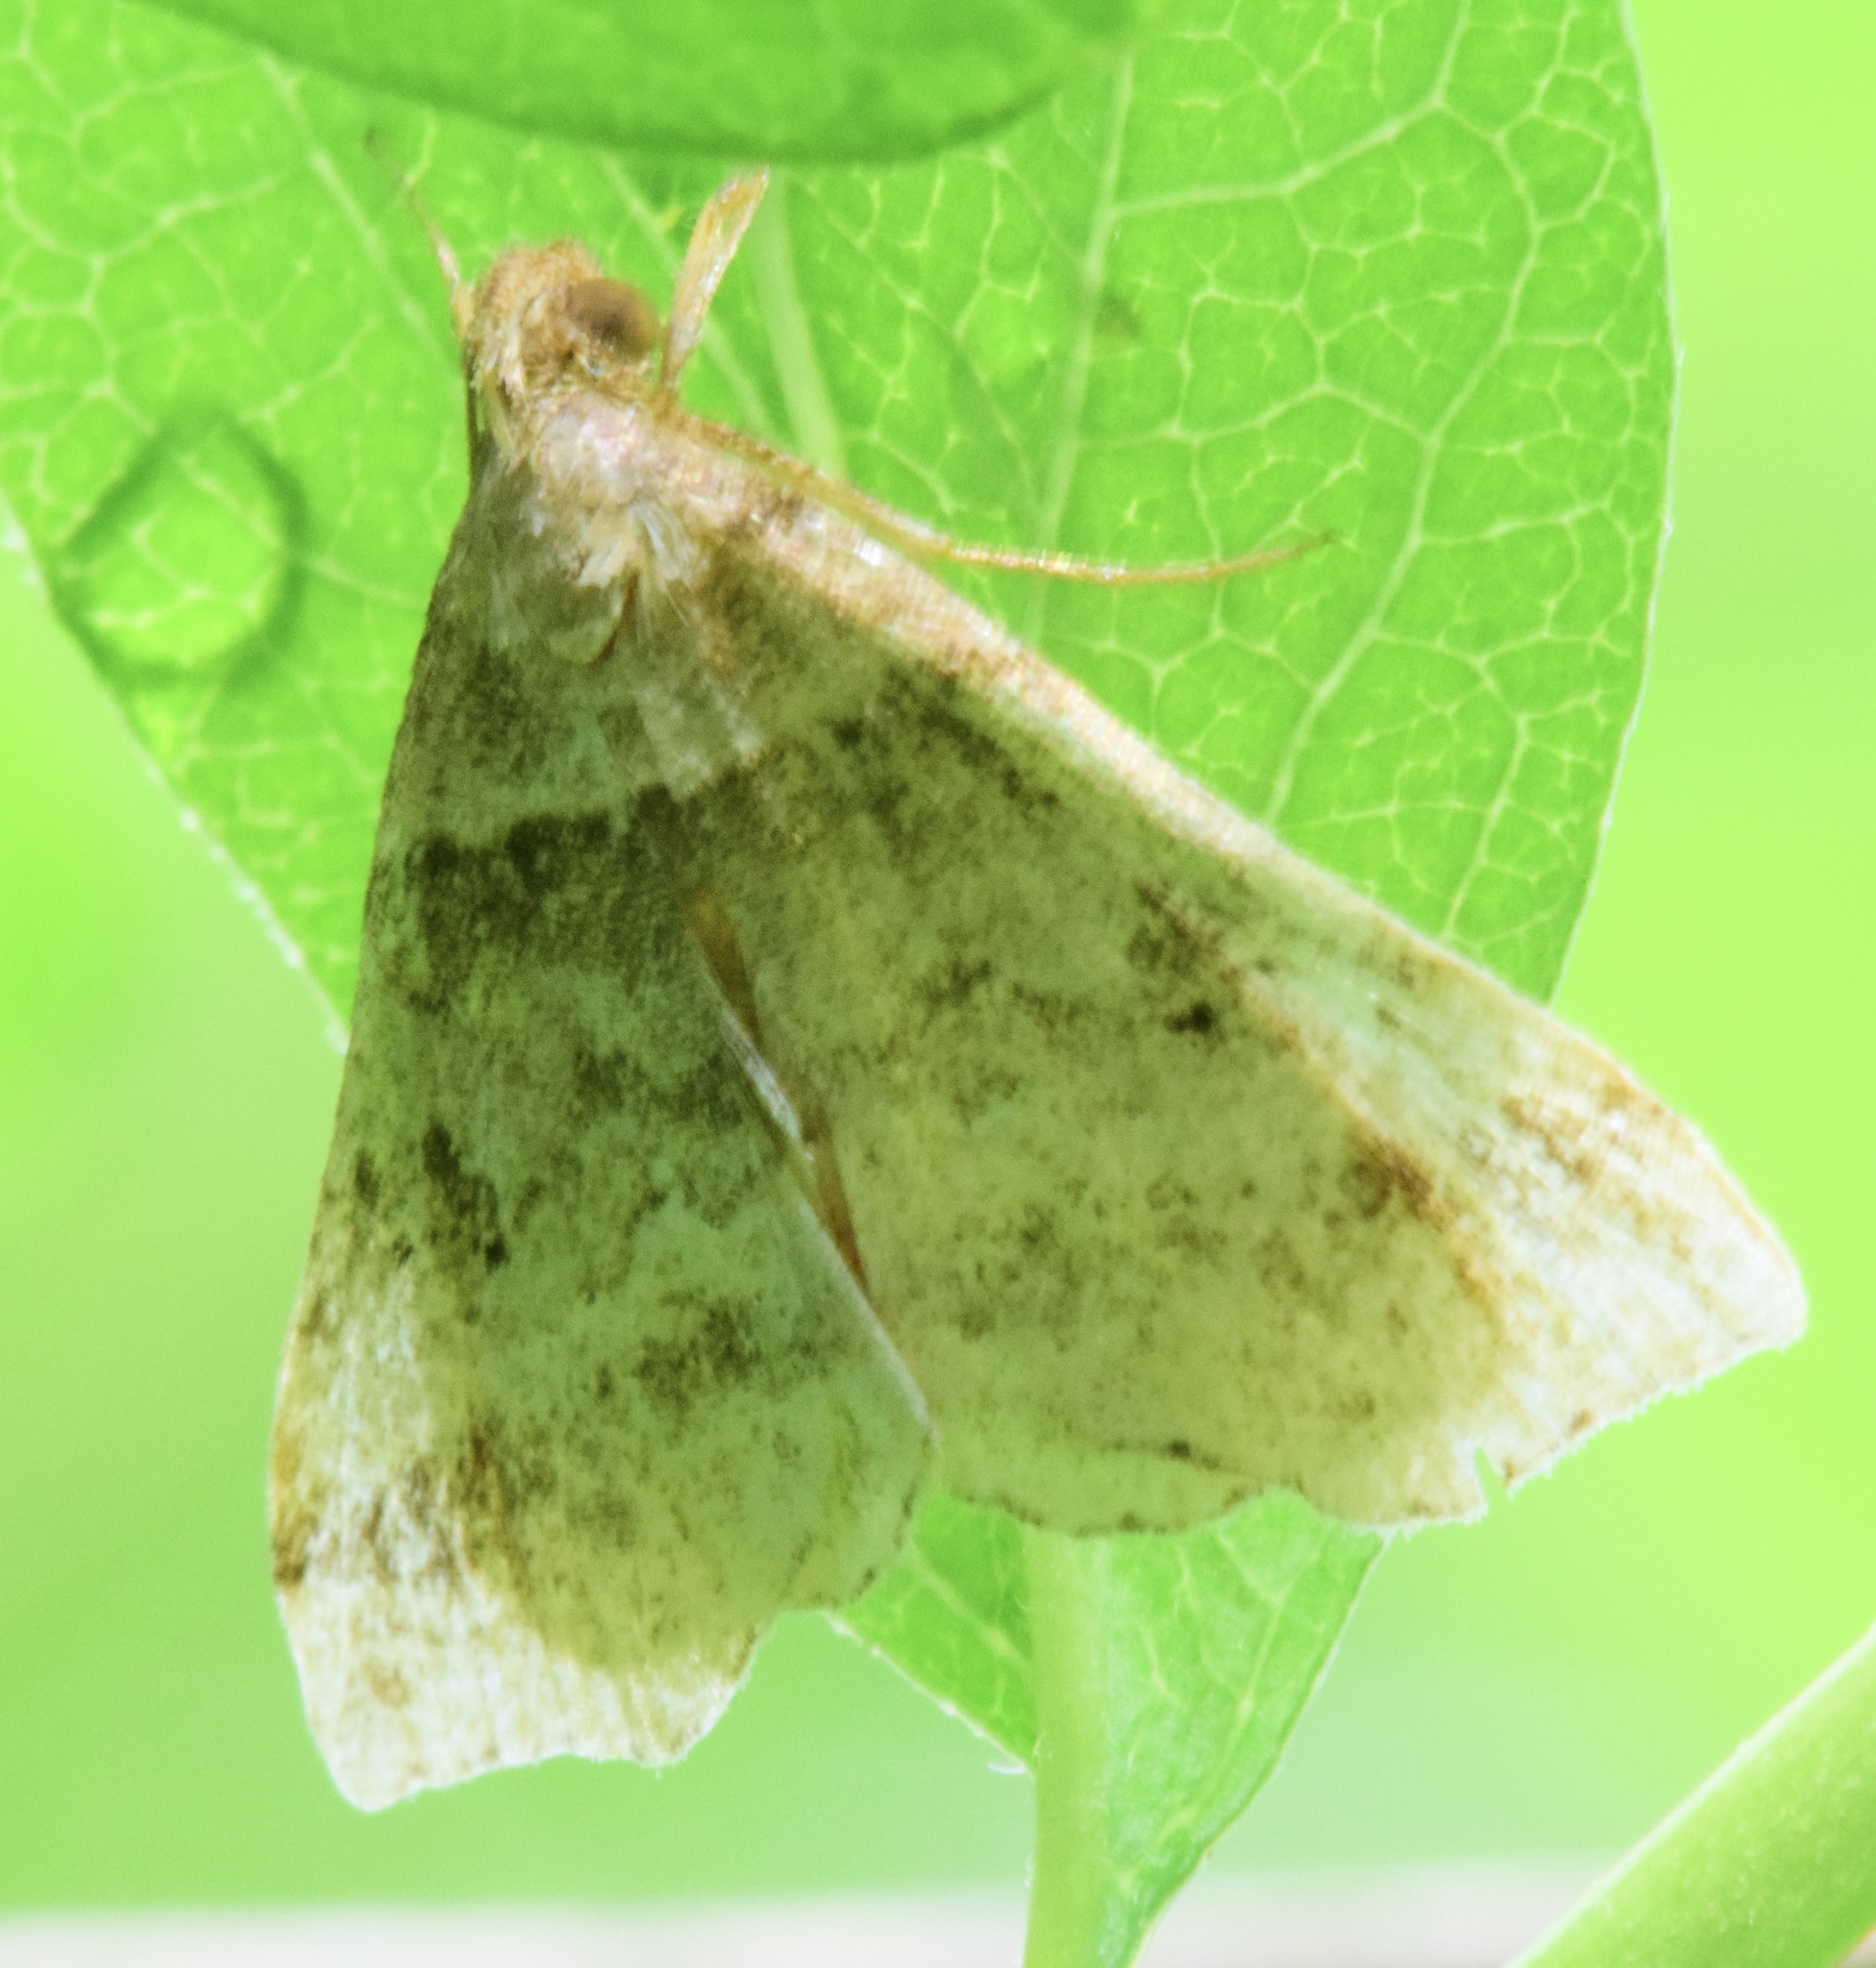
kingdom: Animalia
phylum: Arthropoda
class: Insecta
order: Lepidoptera
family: Erebidae
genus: Phaeolita
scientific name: Phaeolita pyramusalis
